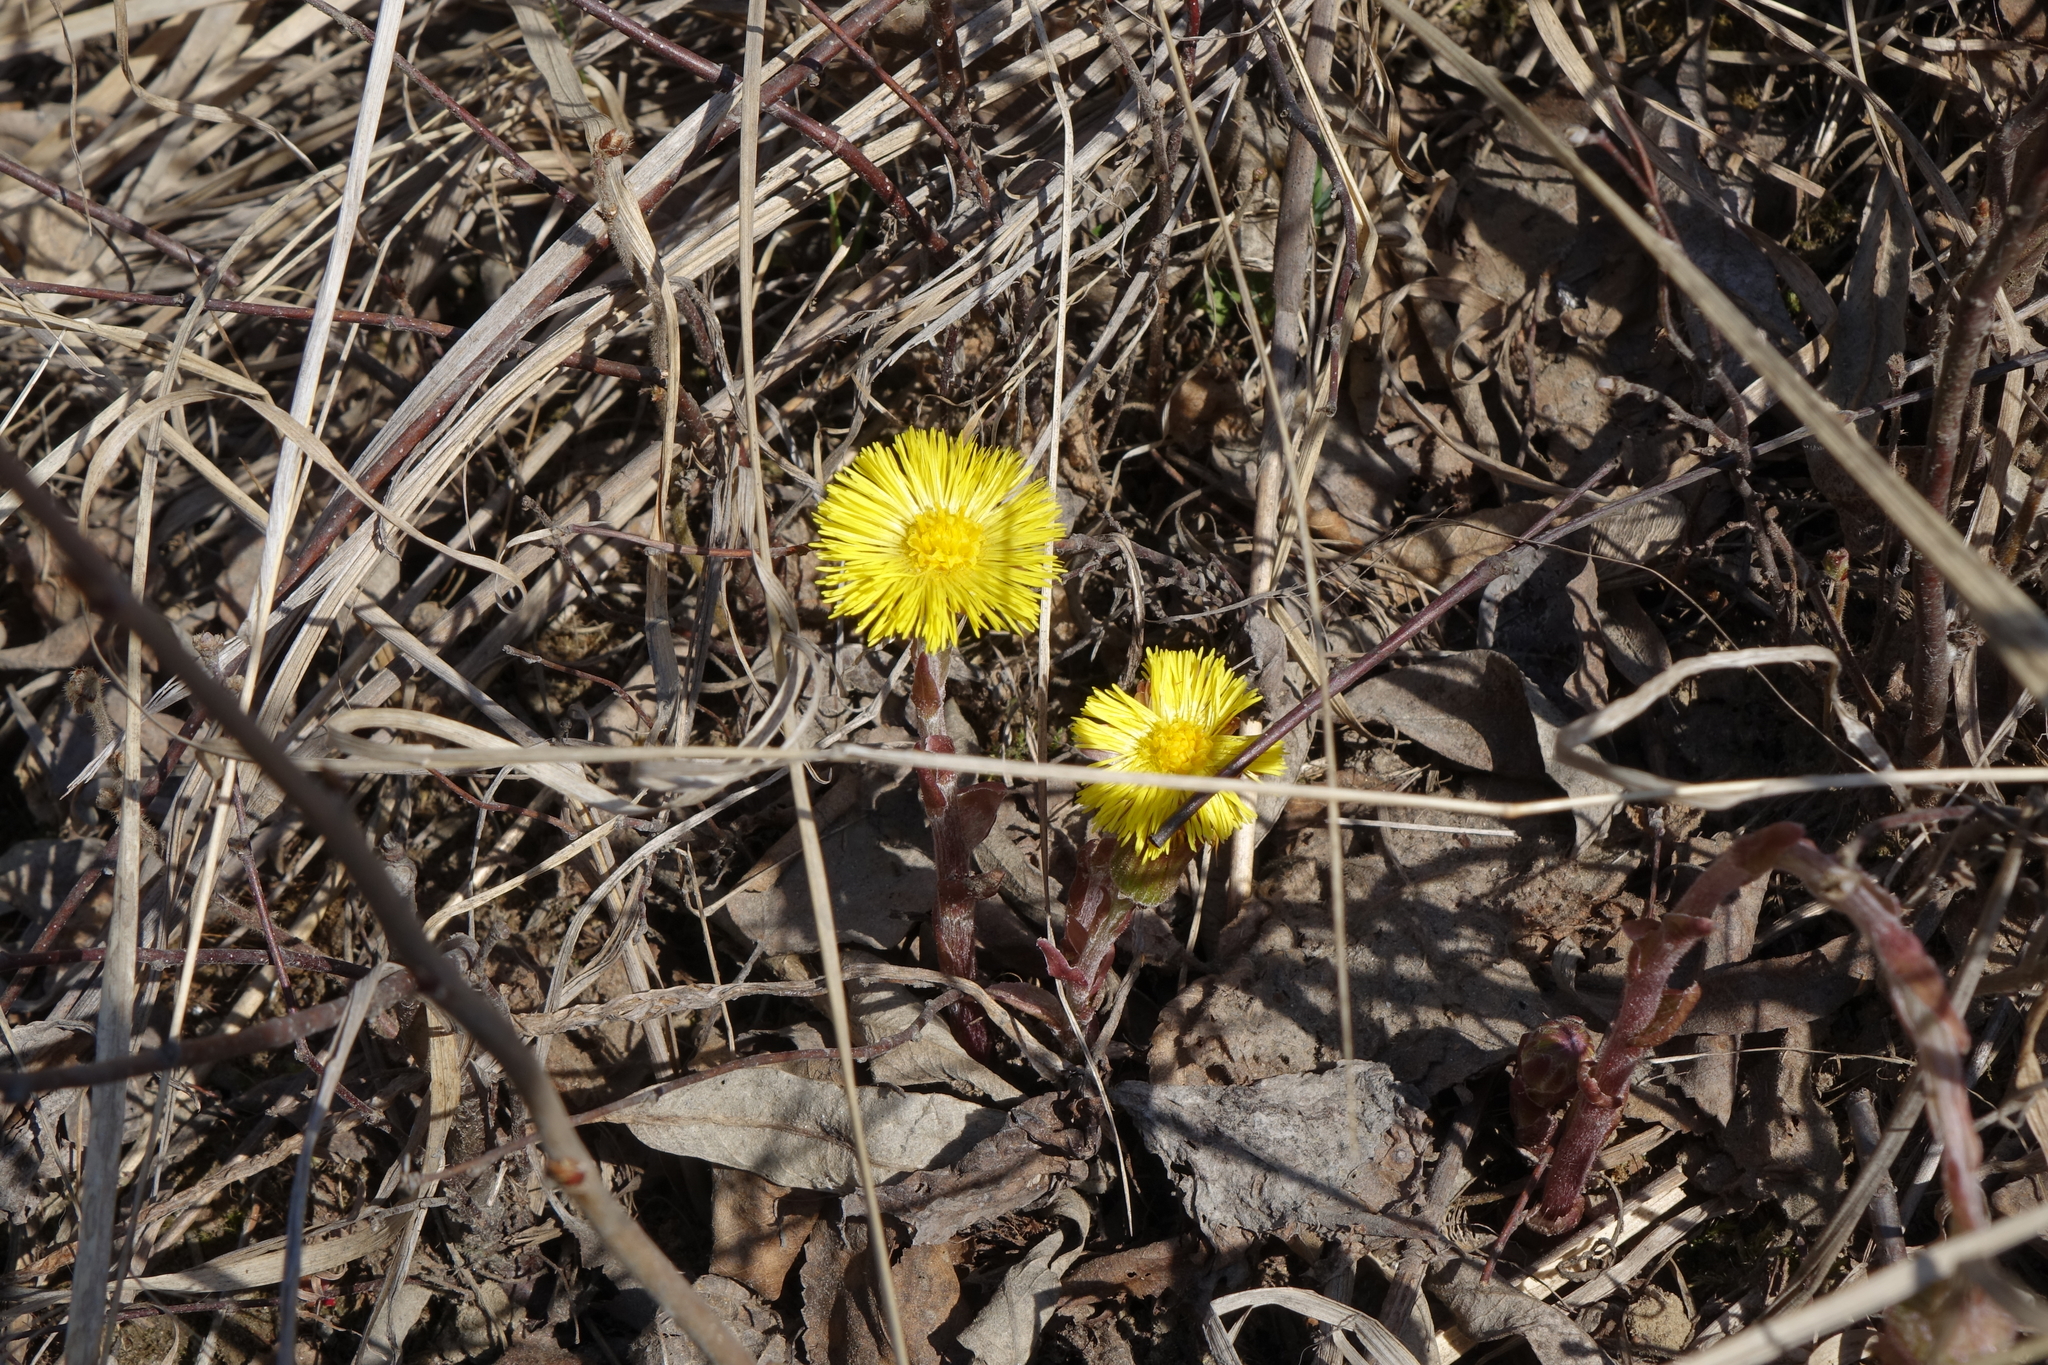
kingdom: Plantae
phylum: Tracheophyta
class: Magnoliopsida
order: Asterales
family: Asteraceae
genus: Tussilago
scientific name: Tussilago farfara
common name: Coltsfoot
